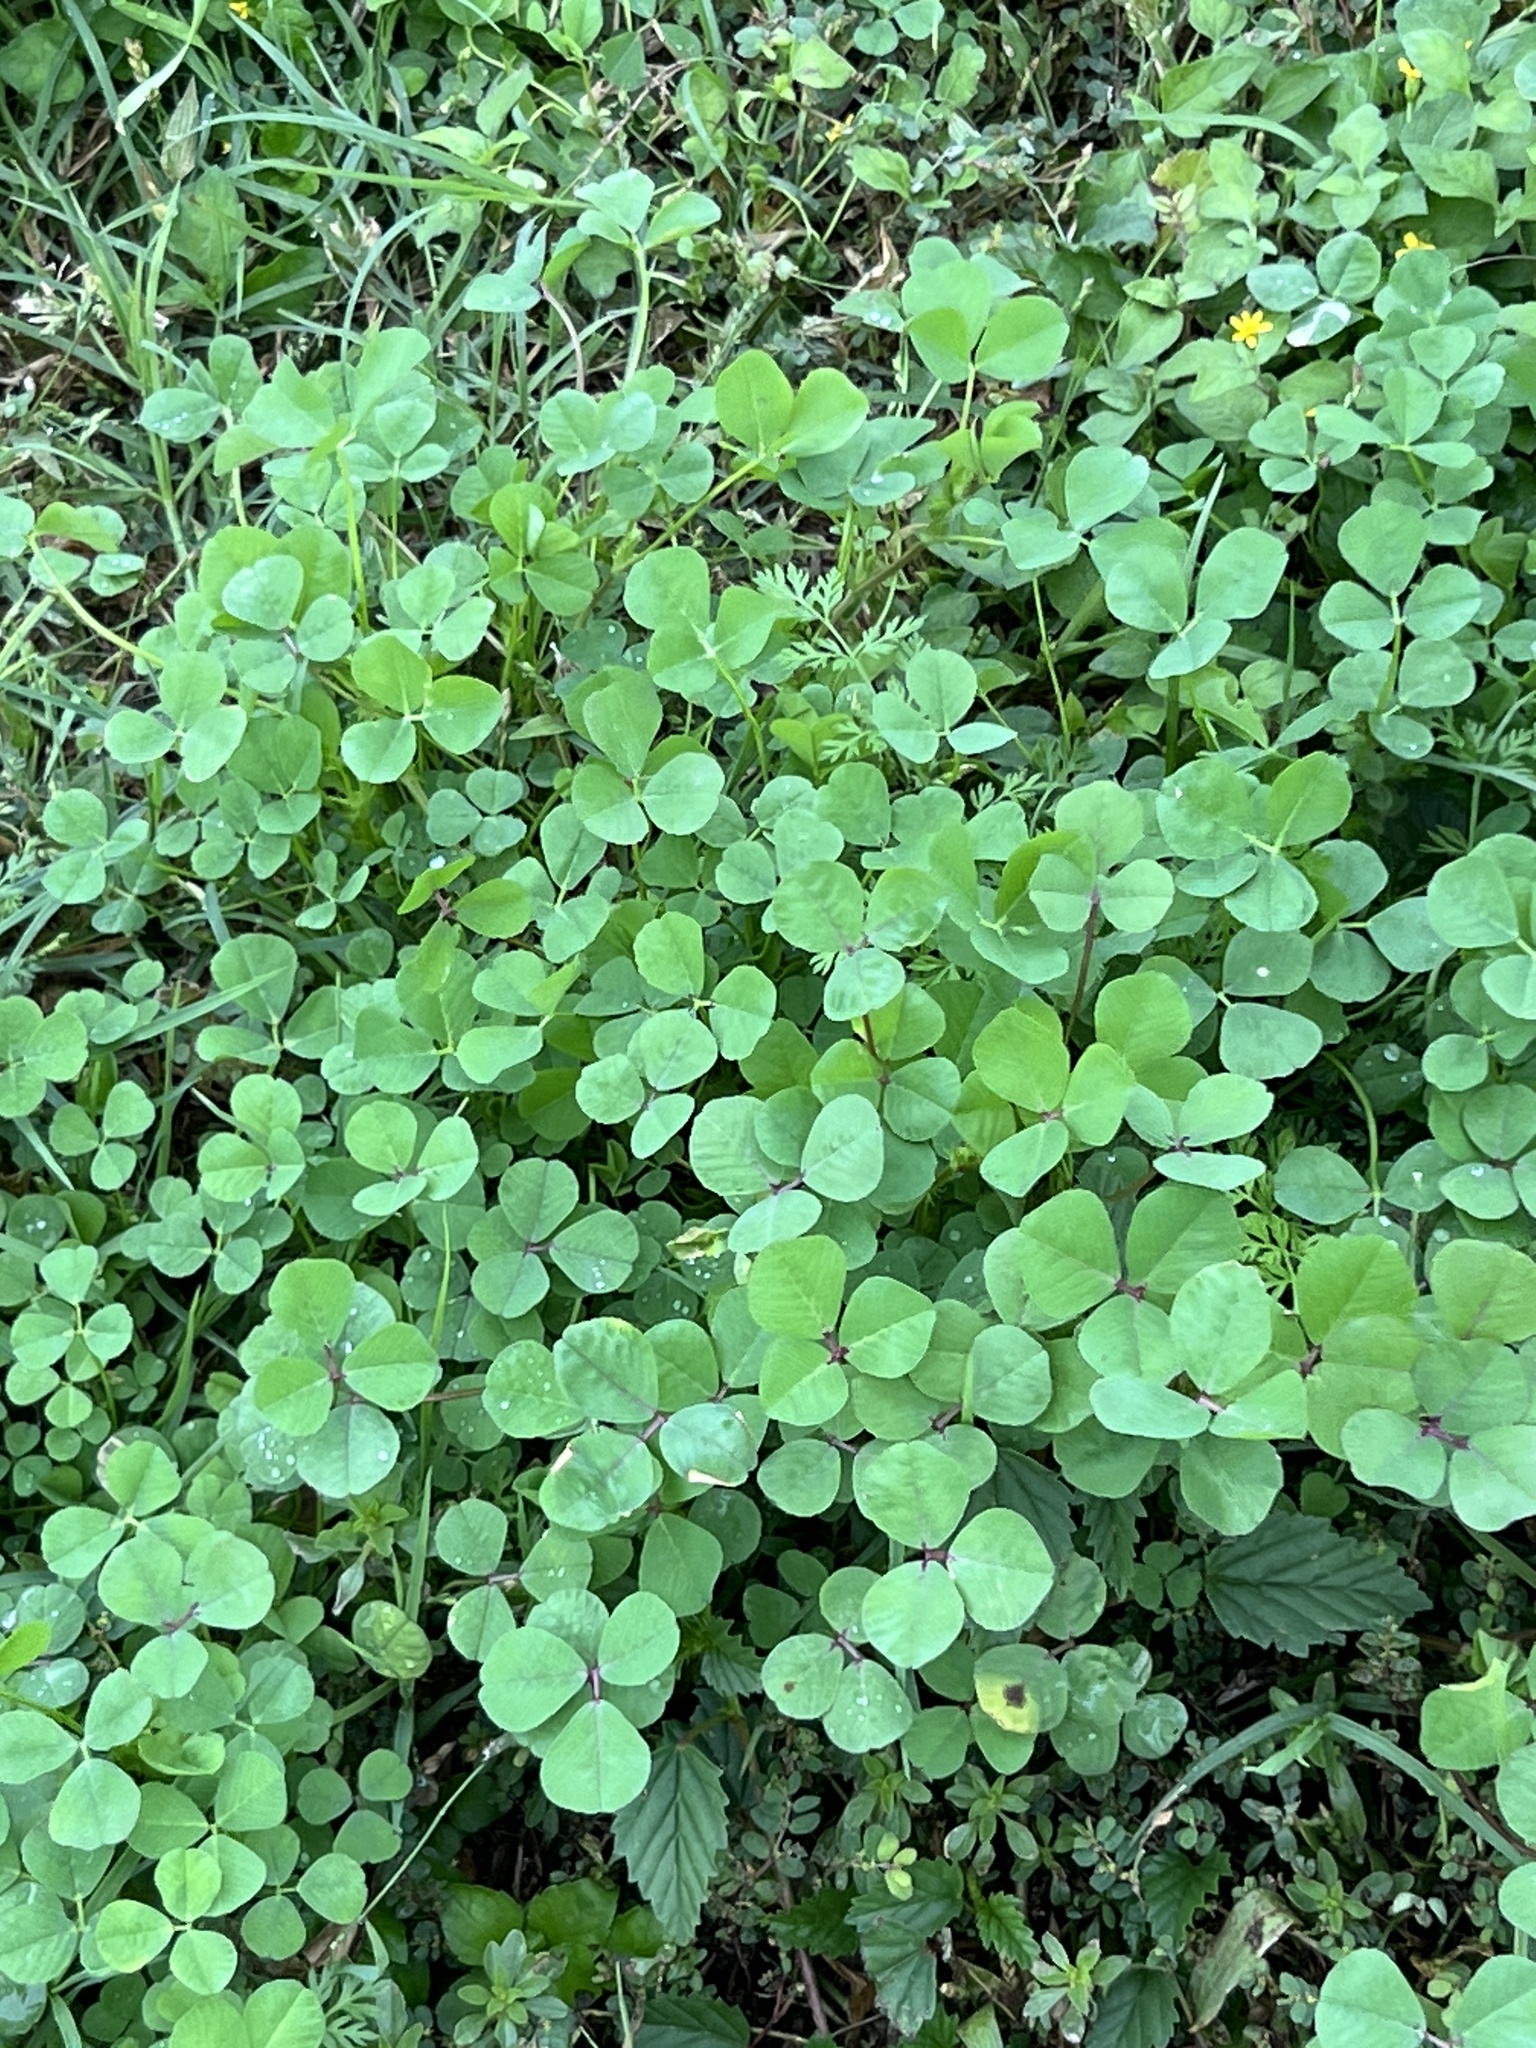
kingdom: Plantae
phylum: Tracheophyta
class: Magnoliopsida
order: Fabales
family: Fabaceae
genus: Medicago
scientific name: Medicago polymorpha
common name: Burclover
